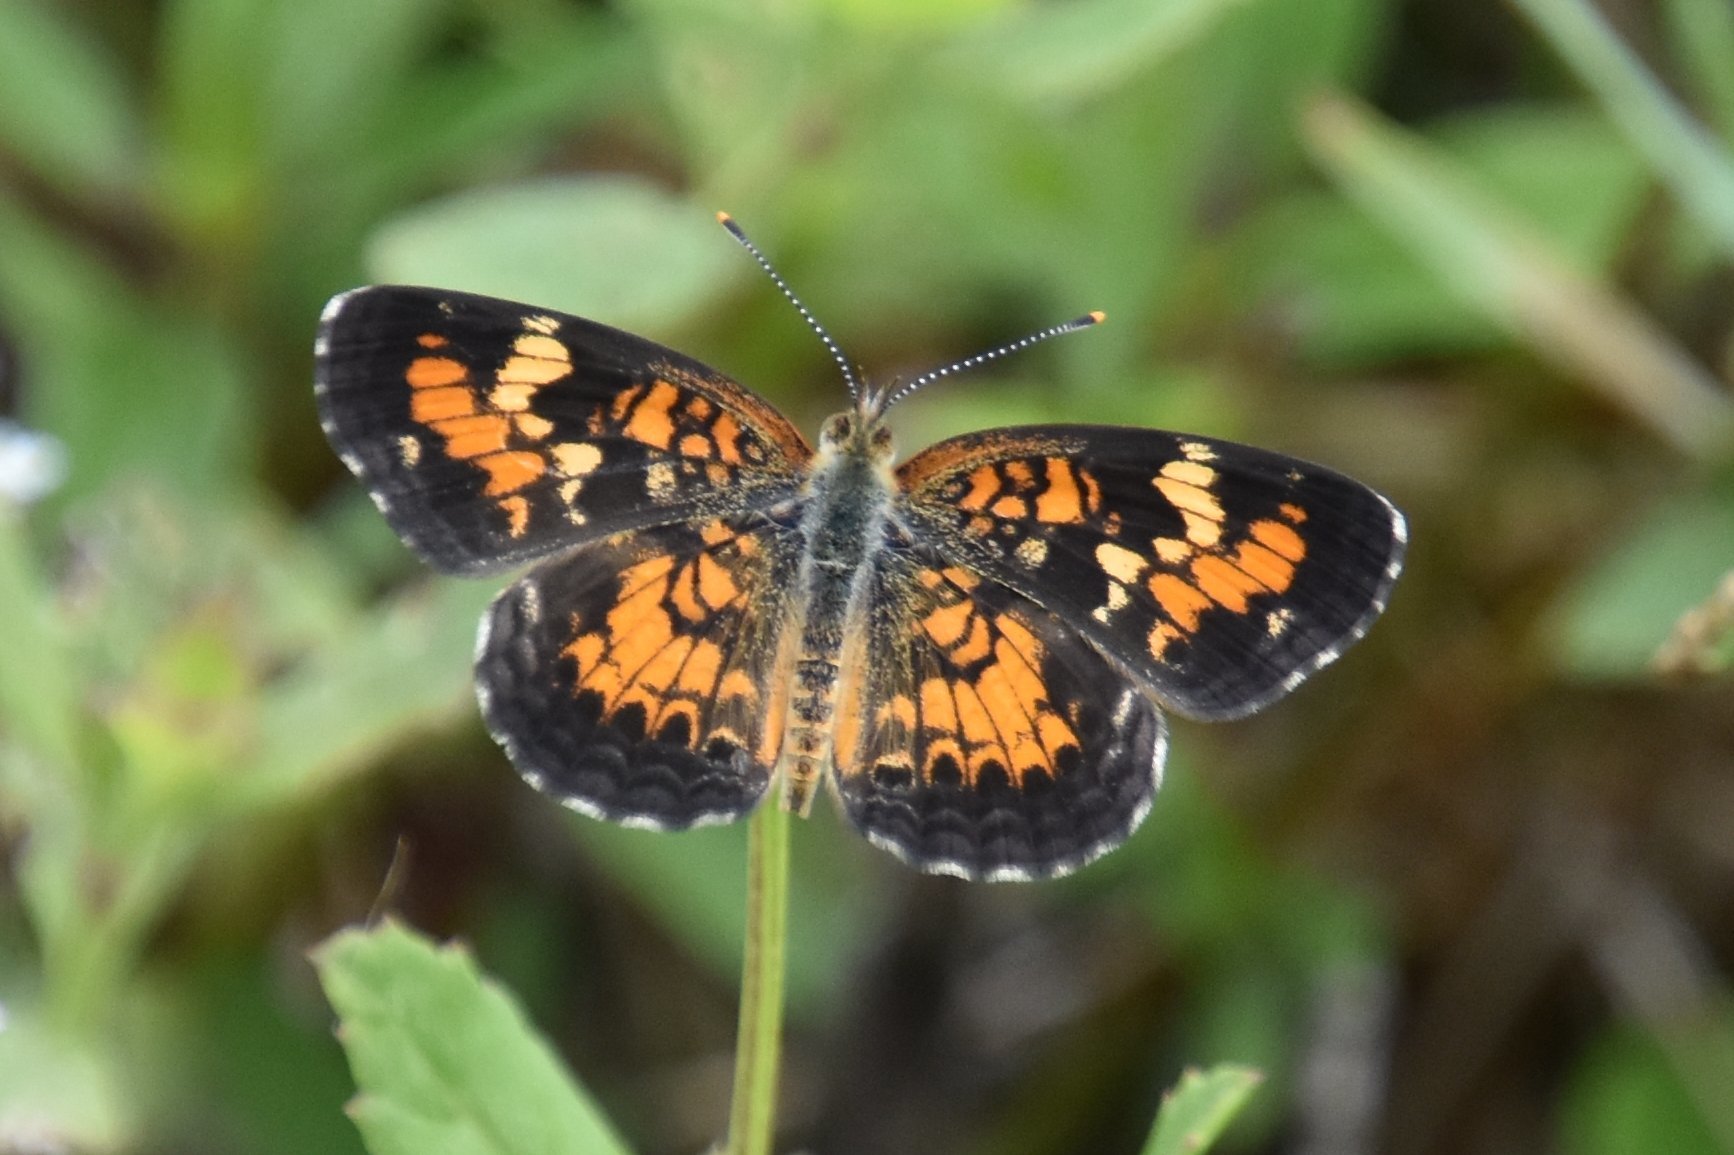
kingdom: Animalia
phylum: Arthropoda
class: Insecta
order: Lepidoptera
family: Nymphalidae
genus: Phyciodes
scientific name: Phyciodes phaon
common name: Phaon crescent
